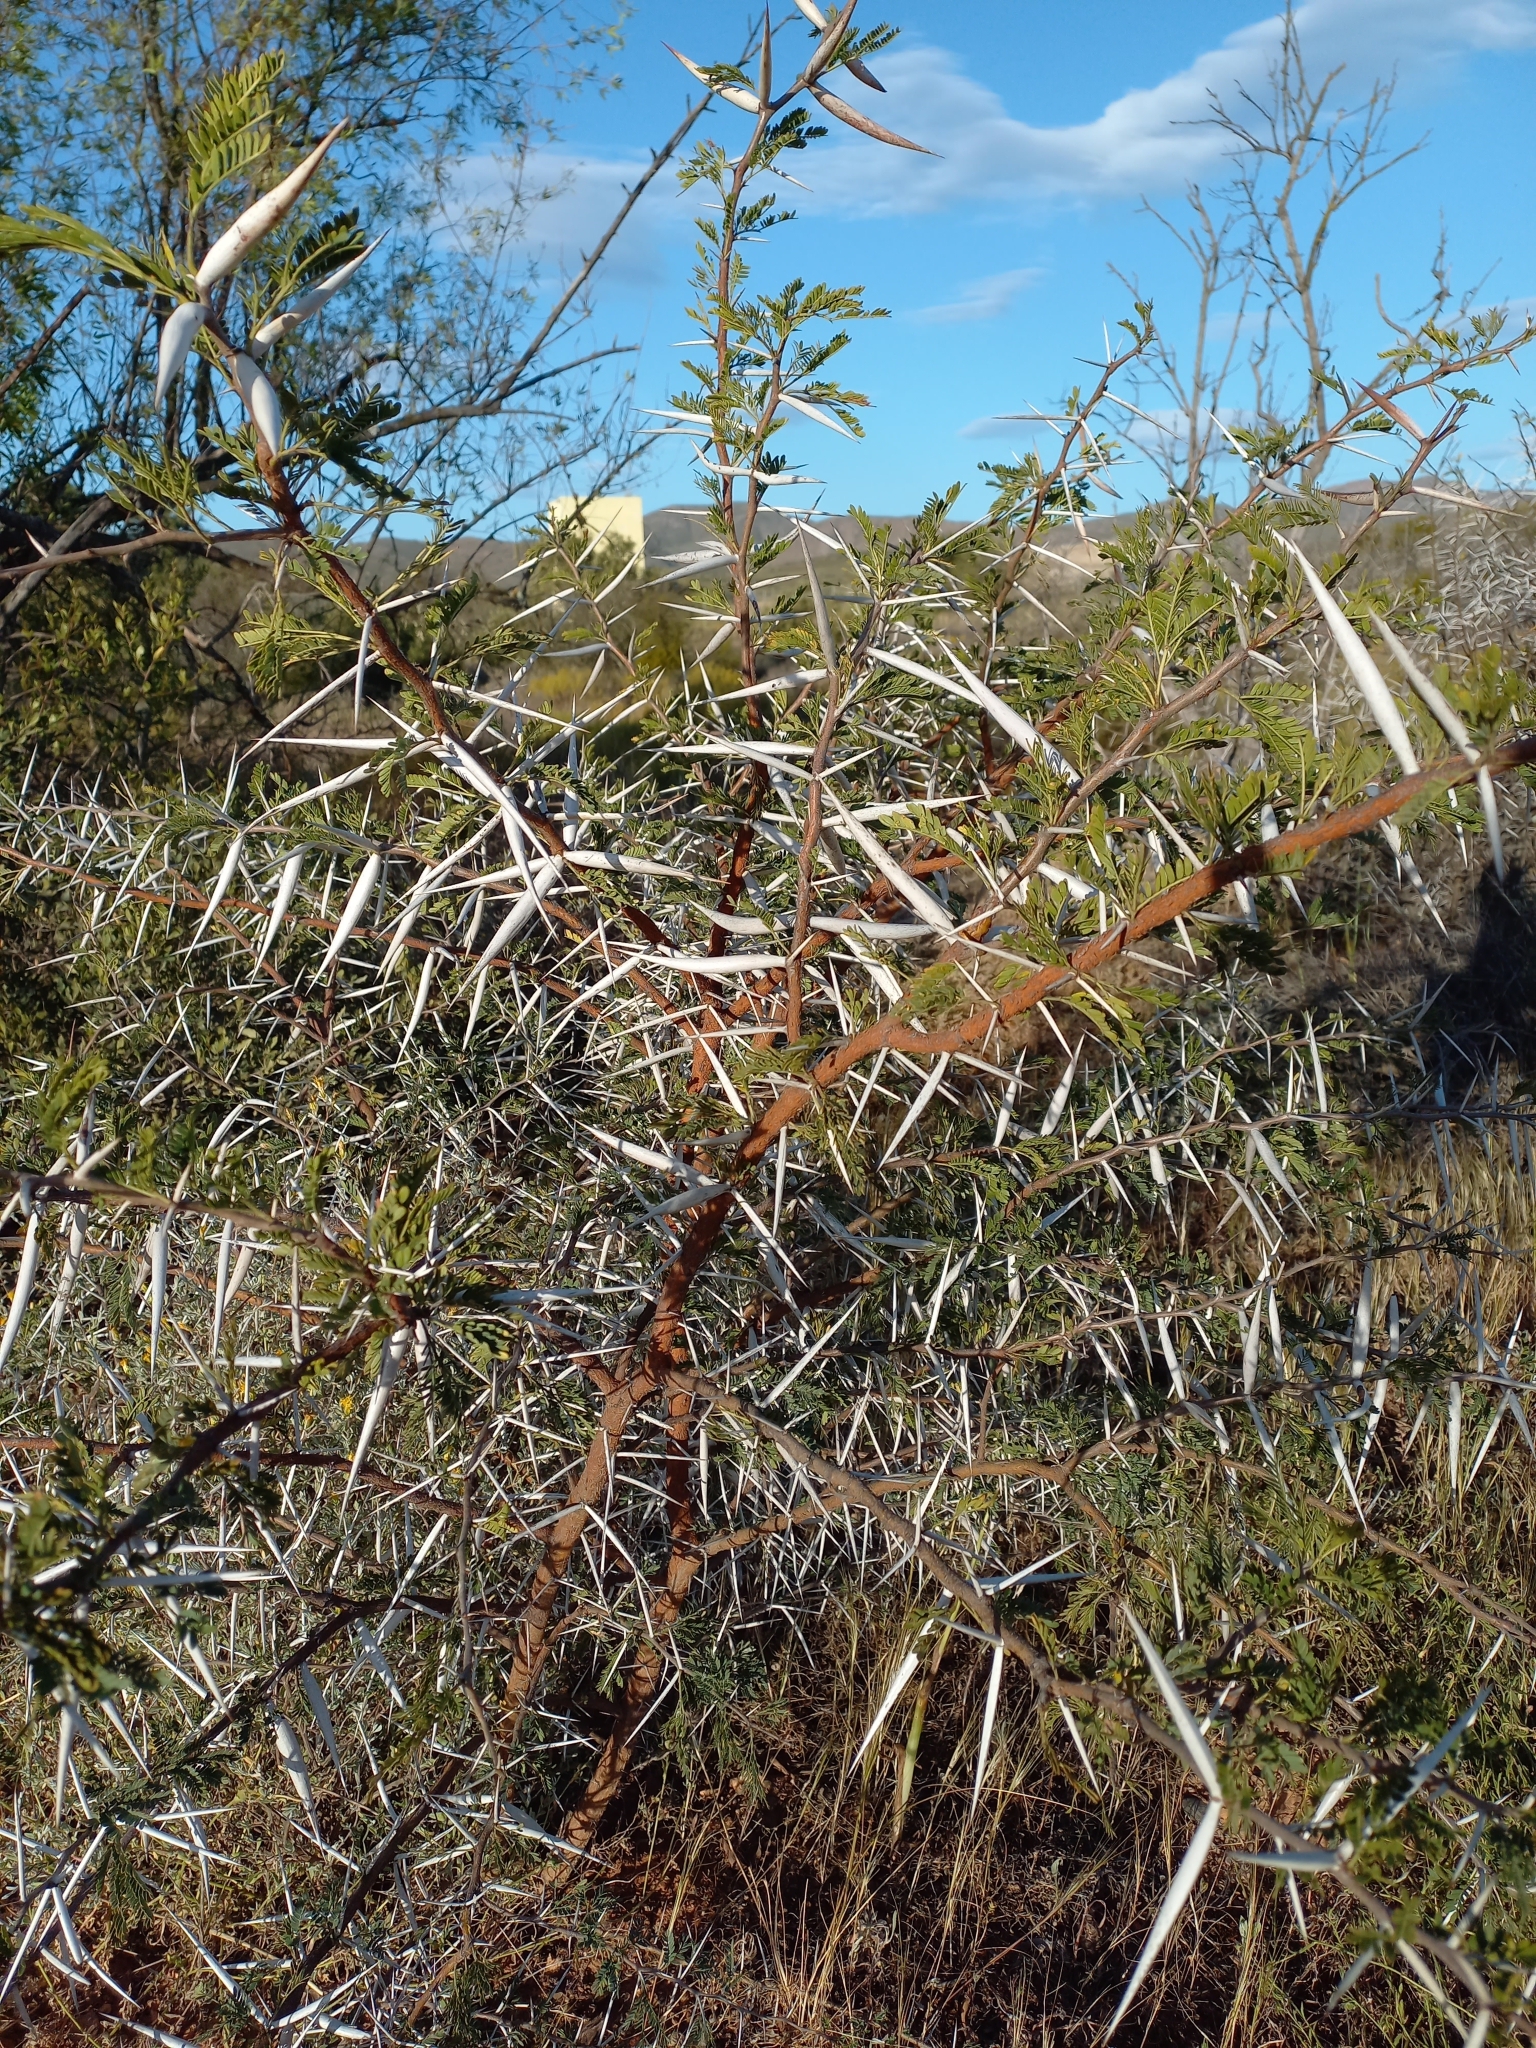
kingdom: Plantae
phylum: Tracheophyta
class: Magnoliopsida
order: Fabales
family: Fabaceae
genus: Vachellia
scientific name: Vachellia karroo
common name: Sweet thorn
